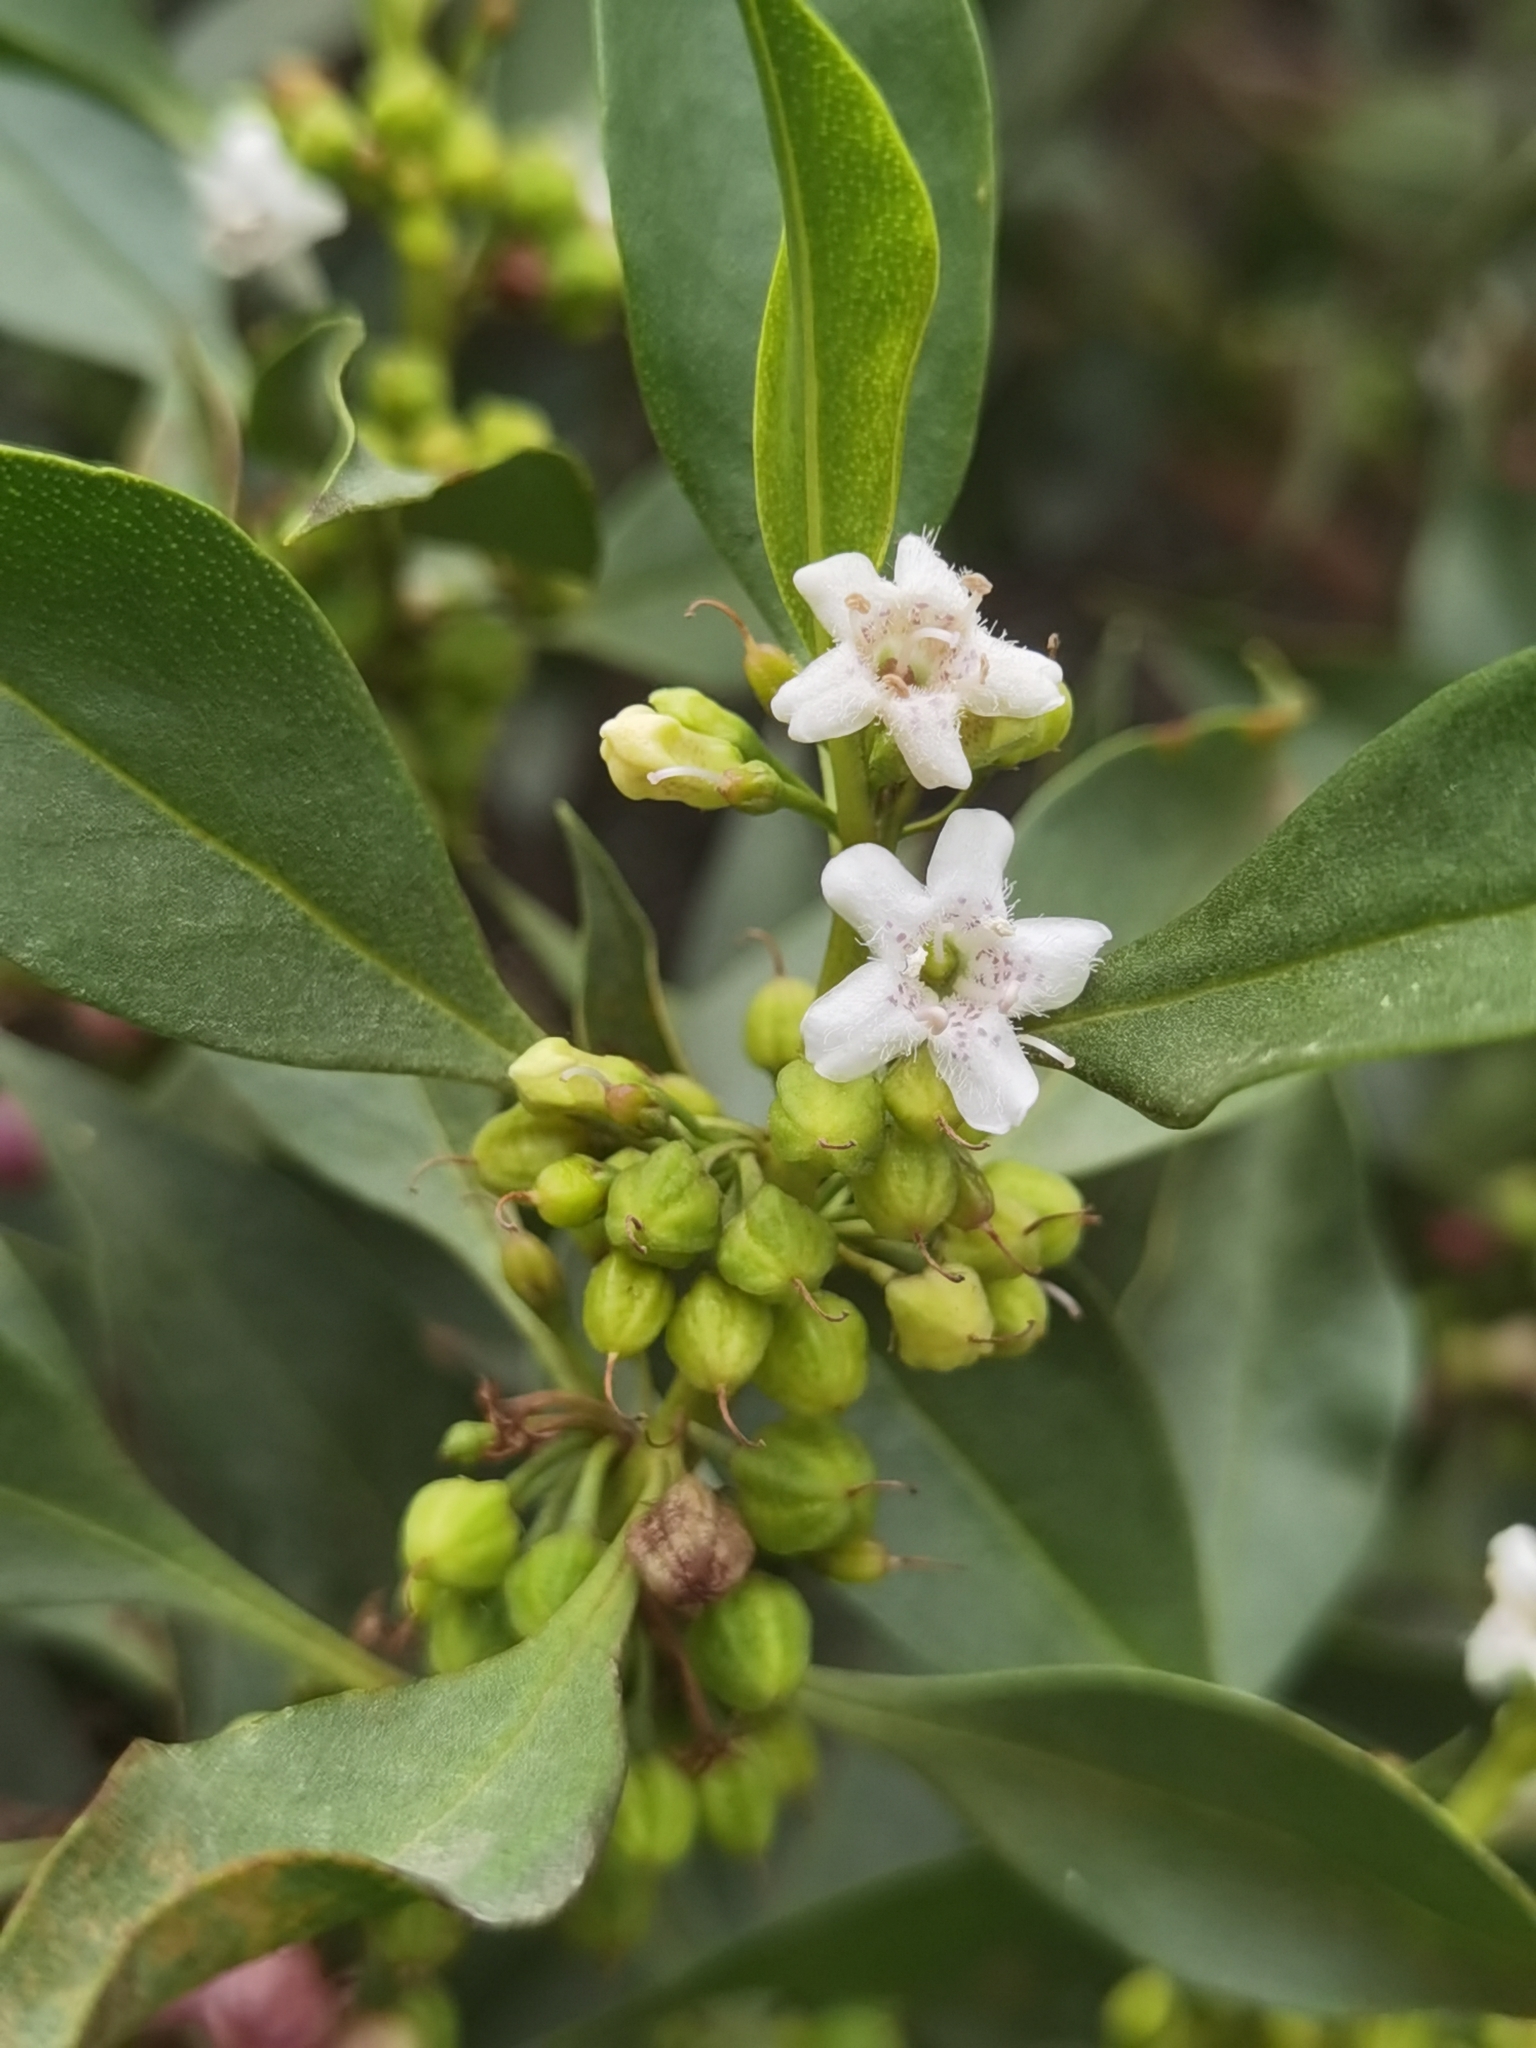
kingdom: Plantae
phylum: Tracheophyta
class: Magnoliopsida
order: Lamiales
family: Scrophulariaceae
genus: Myoporum
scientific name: Myoporum laetum
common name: Ngaio tree
